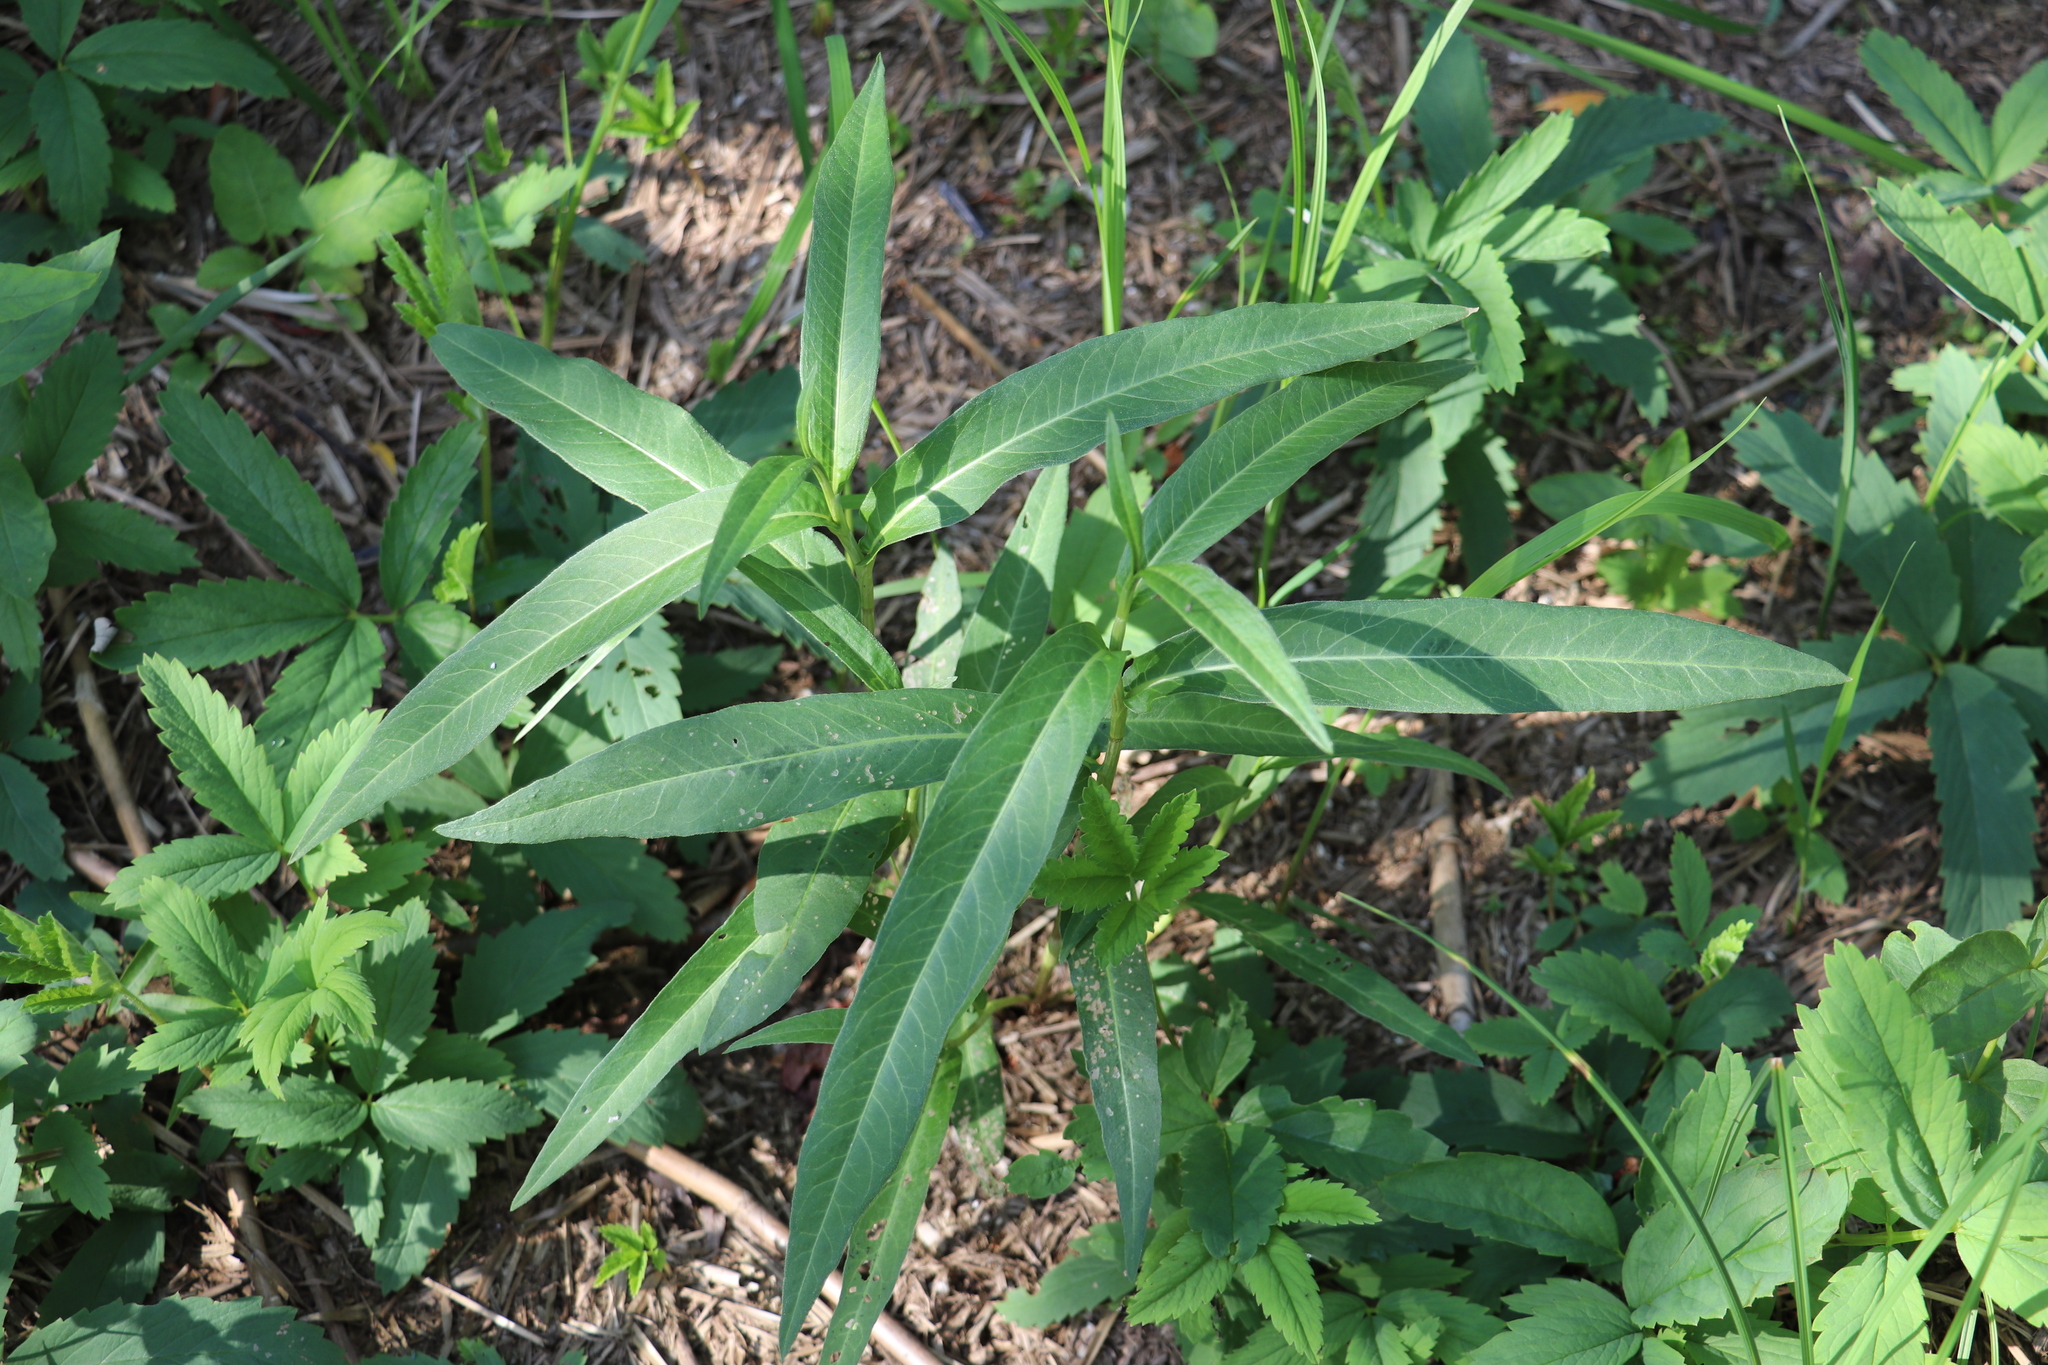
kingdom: Plantae
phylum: Tracheophyta
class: Magnoliopsida
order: Caryophyllales
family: Polygonaceae
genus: Persicaria
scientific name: Persicaria amphibia
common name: Amphibious bistort
